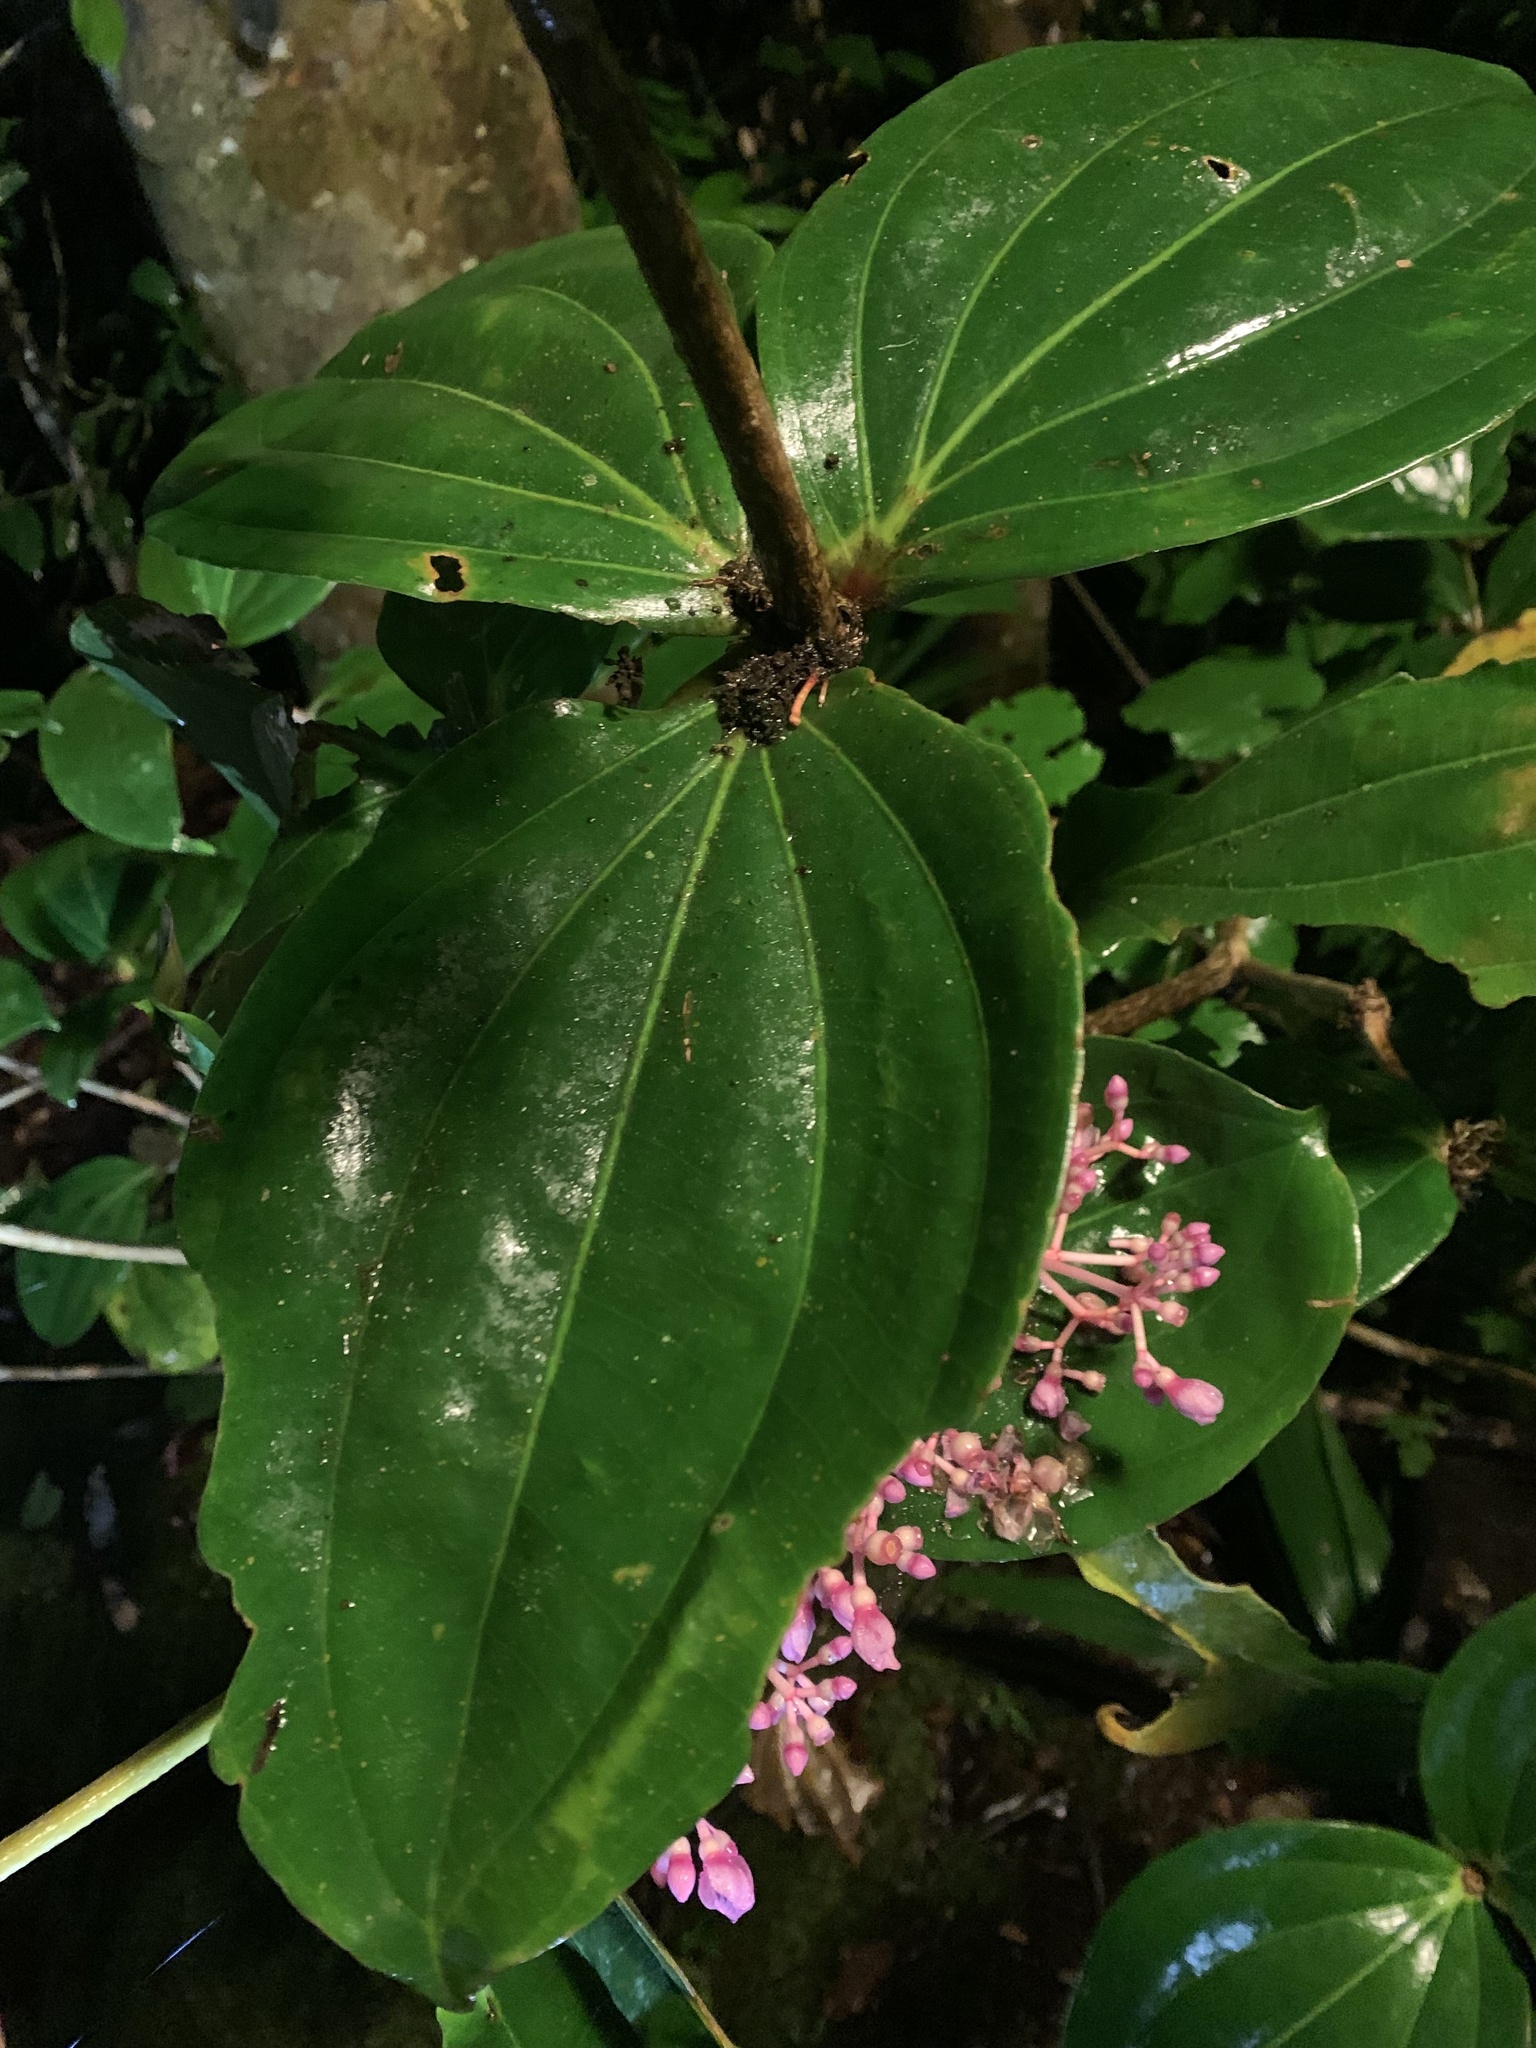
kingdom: Plantae
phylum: Tracheophyta
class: Magnoliopsida
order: Myrtales
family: Melastomataceae
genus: Medinilla
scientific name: Medinilla speciosa
